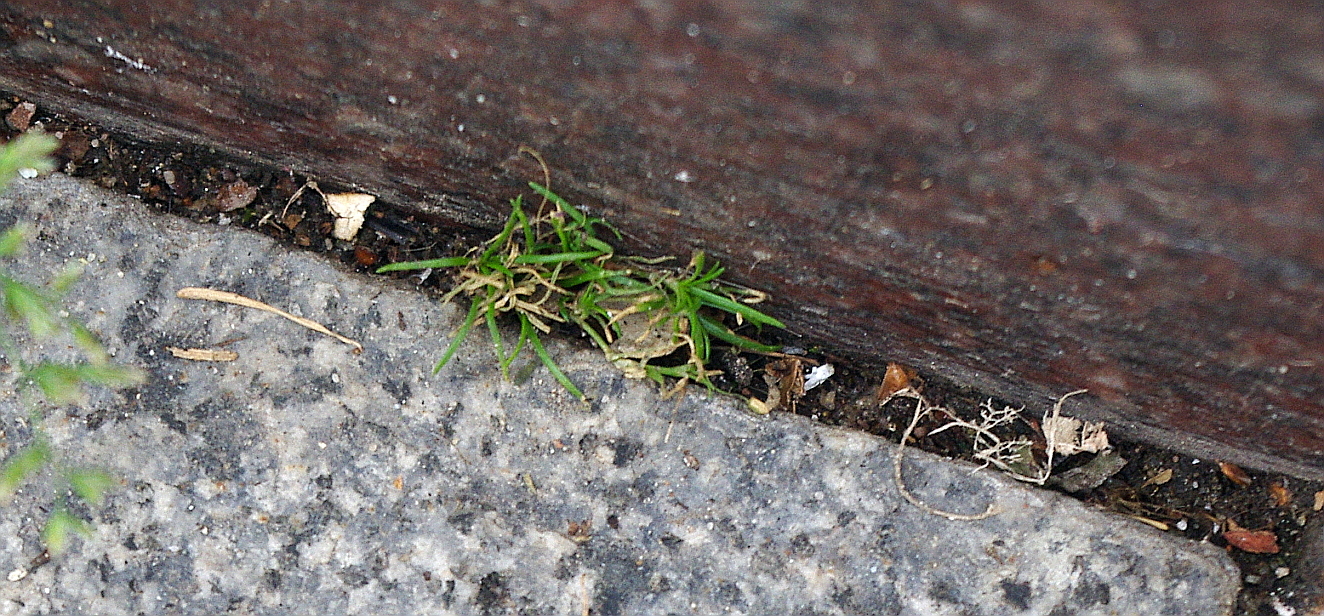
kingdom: Plantae
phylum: Tracheophyta
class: Magnoliopsida
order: Caryophyllales
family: Caryophyllaceae
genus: Sagina
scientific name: Sagina procumbens
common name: Procumbent pearlwort
